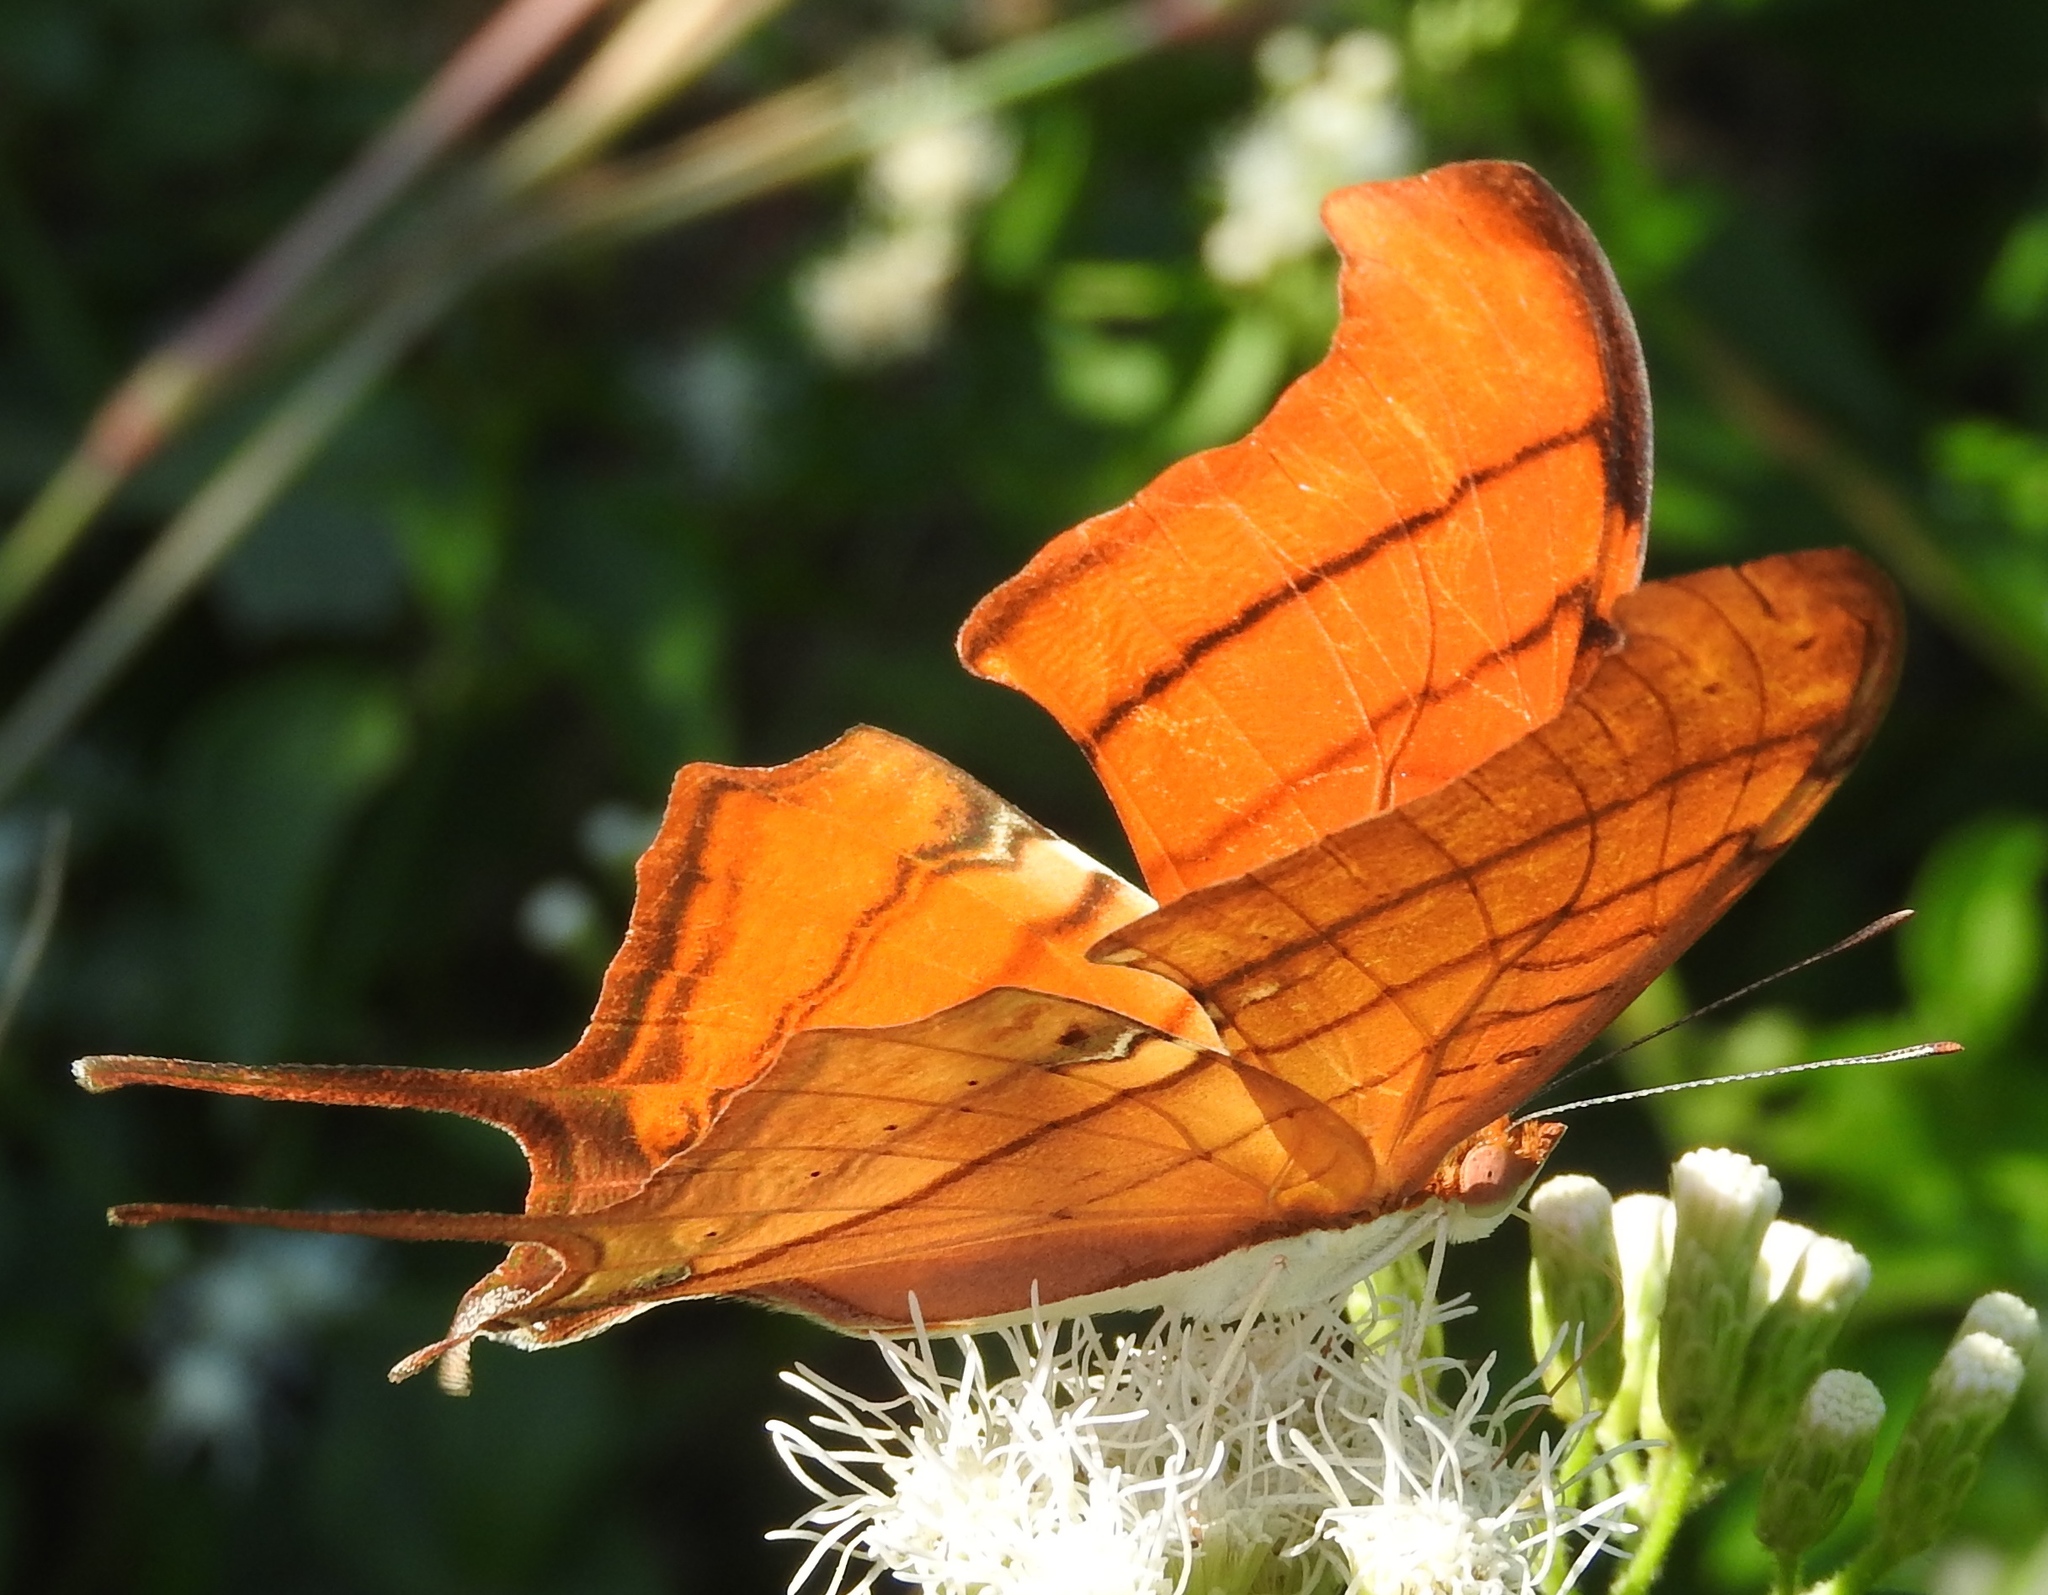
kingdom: Animalia
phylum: Arthropoda
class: Insecta
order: Lepidoptera
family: Nymphalidae
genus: Marpesia
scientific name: Marpesia petreus
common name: Red dagger wing
